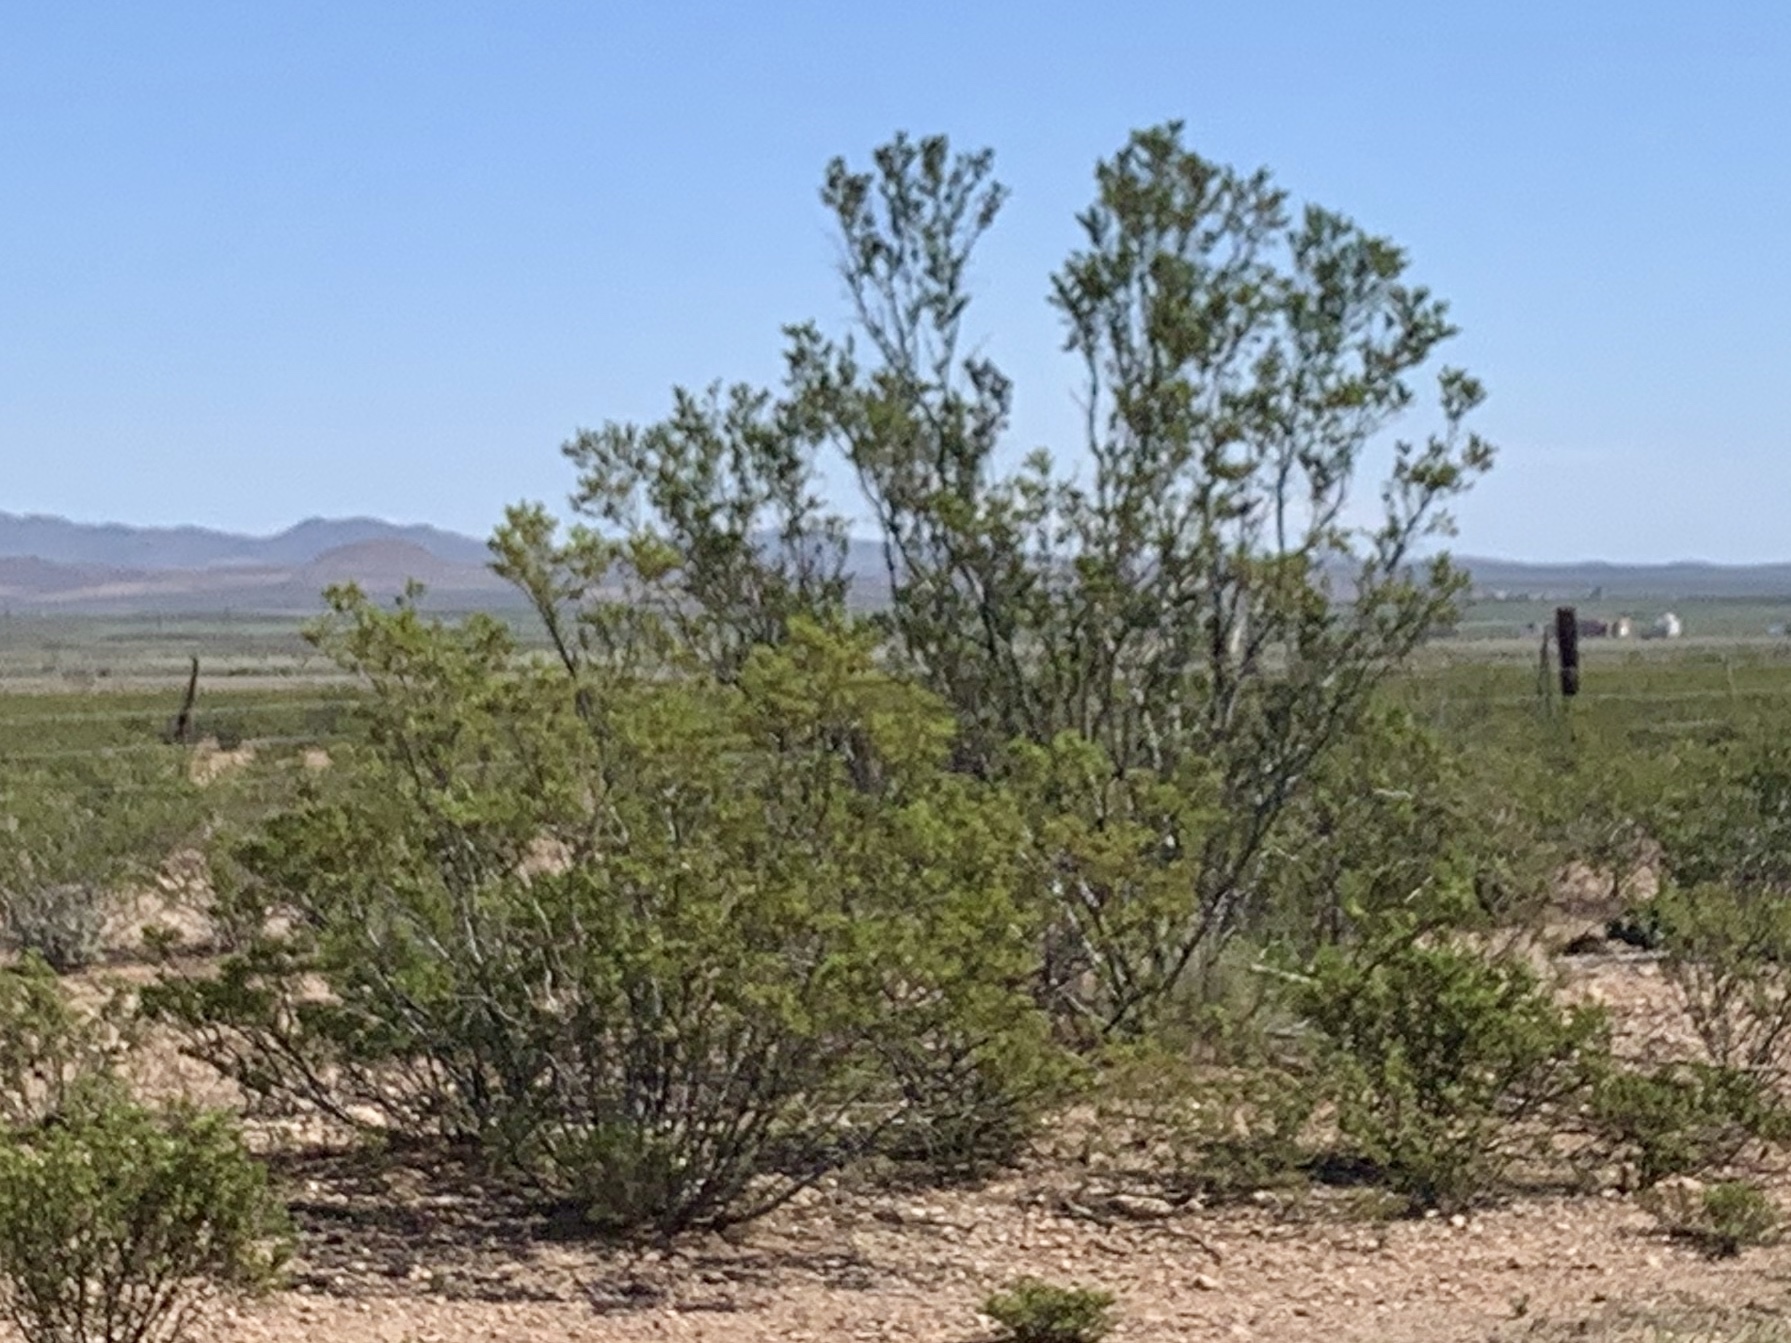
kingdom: Plantae
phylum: Tracheophyta
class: Magnoliopsida
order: Zygophyllales
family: Zygophyllaceae
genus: Larrea
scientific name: Larrea tridentata
